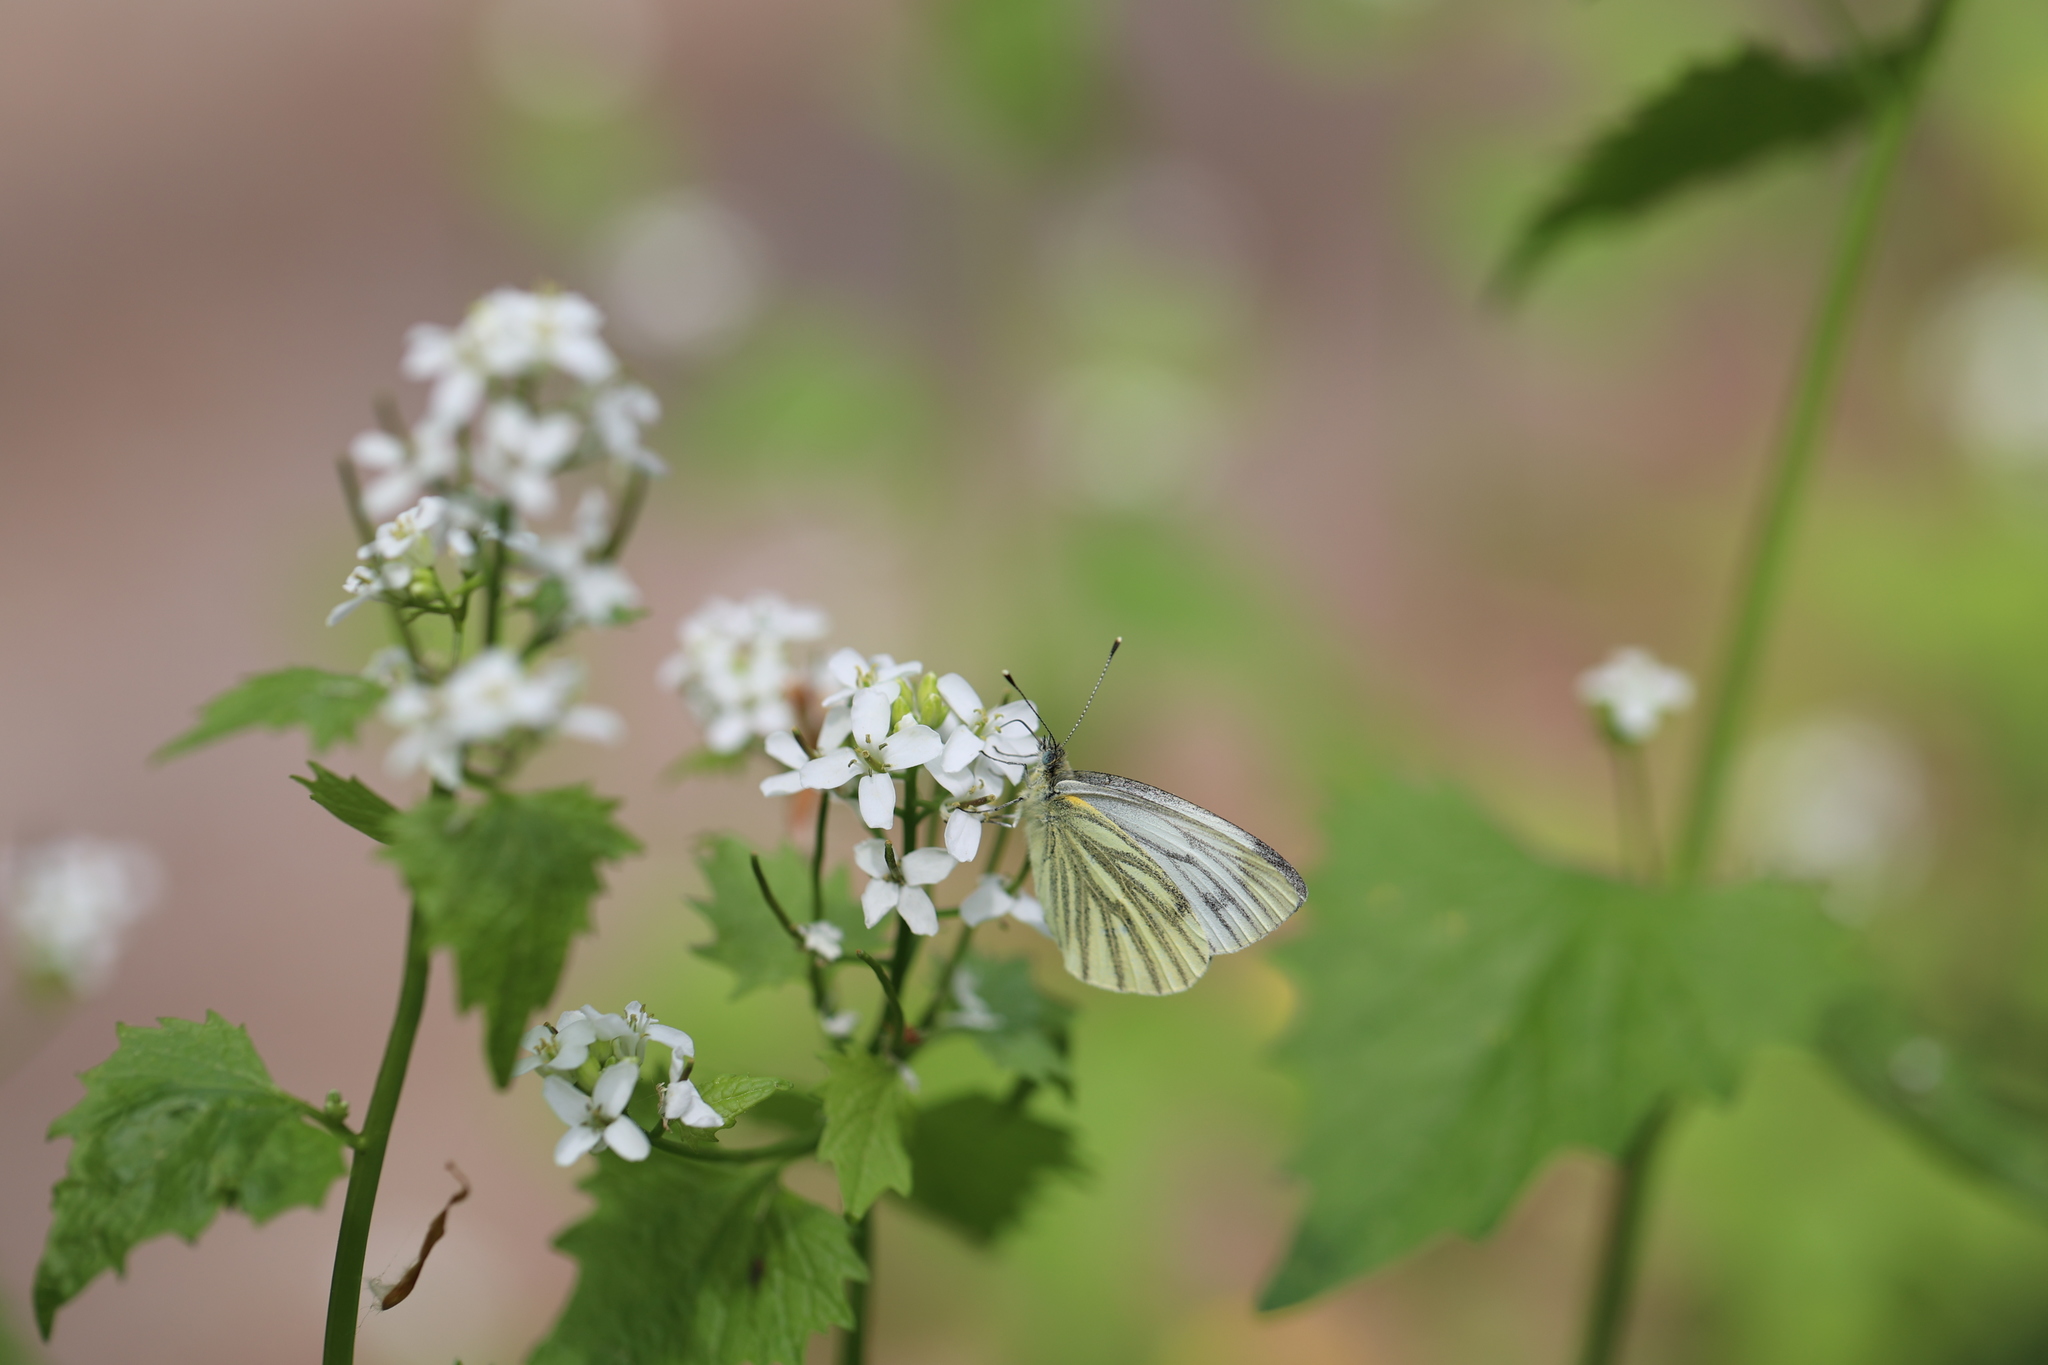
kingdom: Animalia
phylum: Arthropoda
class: Insecta
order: Lepidoptera
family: Pieridae
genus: Pieris
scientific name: Pieris napi
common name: Green-veined white
